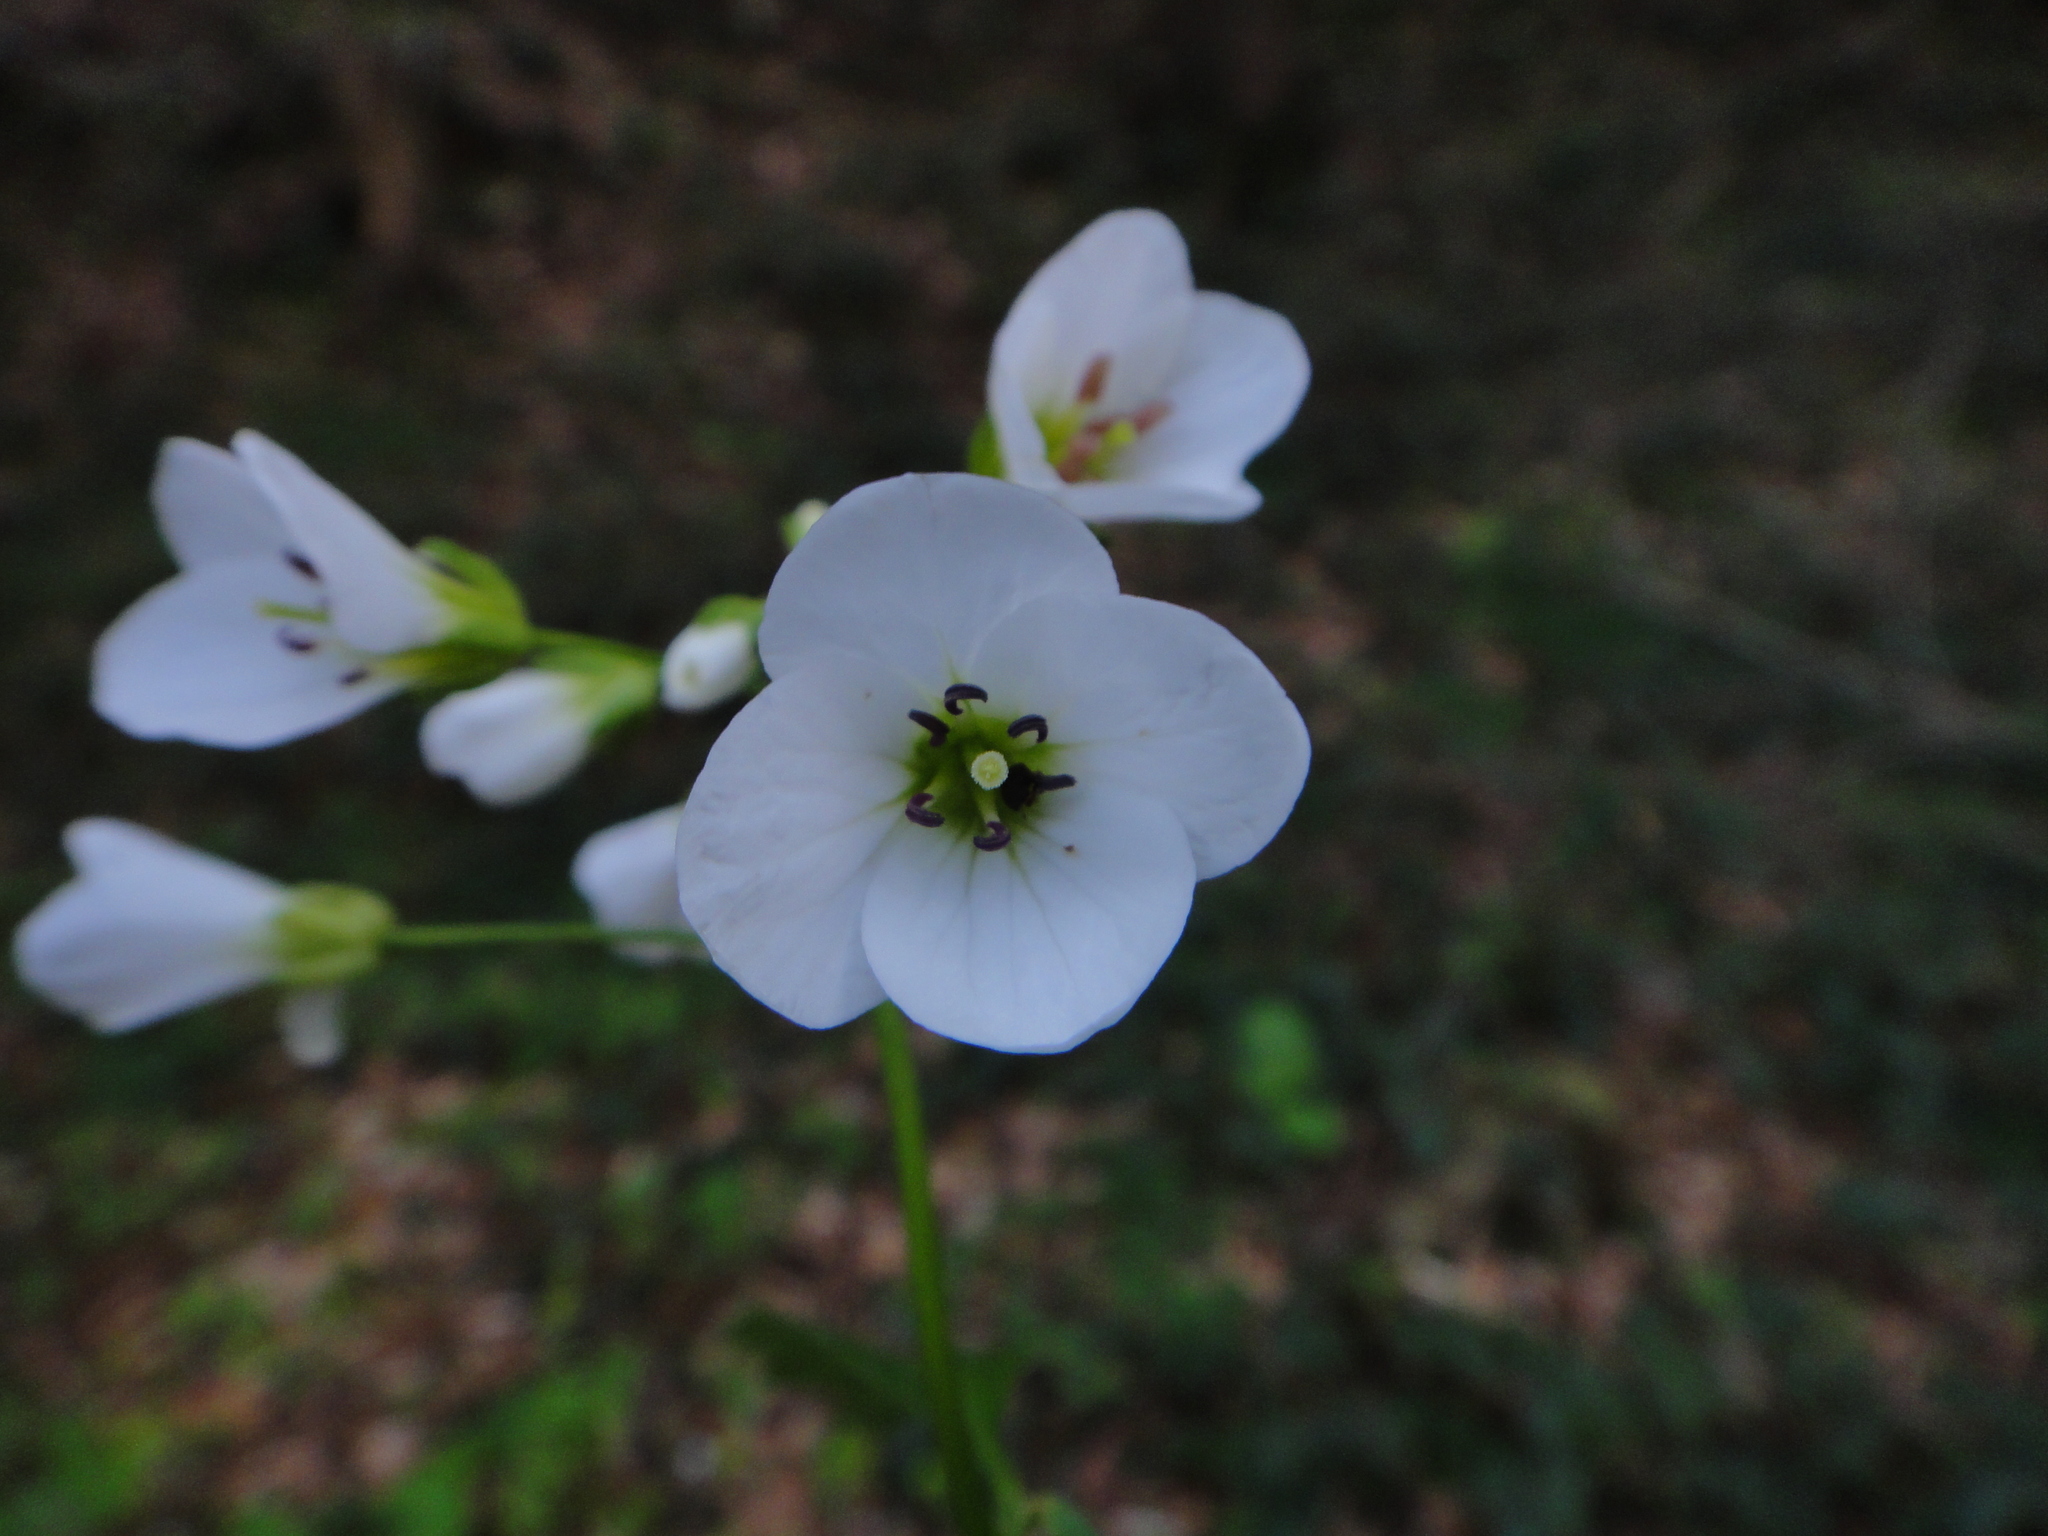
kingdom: Plantae
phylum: Tracheophyta
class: Magnoliopsida
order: Brassicales
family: Brassicaceae
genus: Cardamine
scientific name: Cardamine waldsteinii
